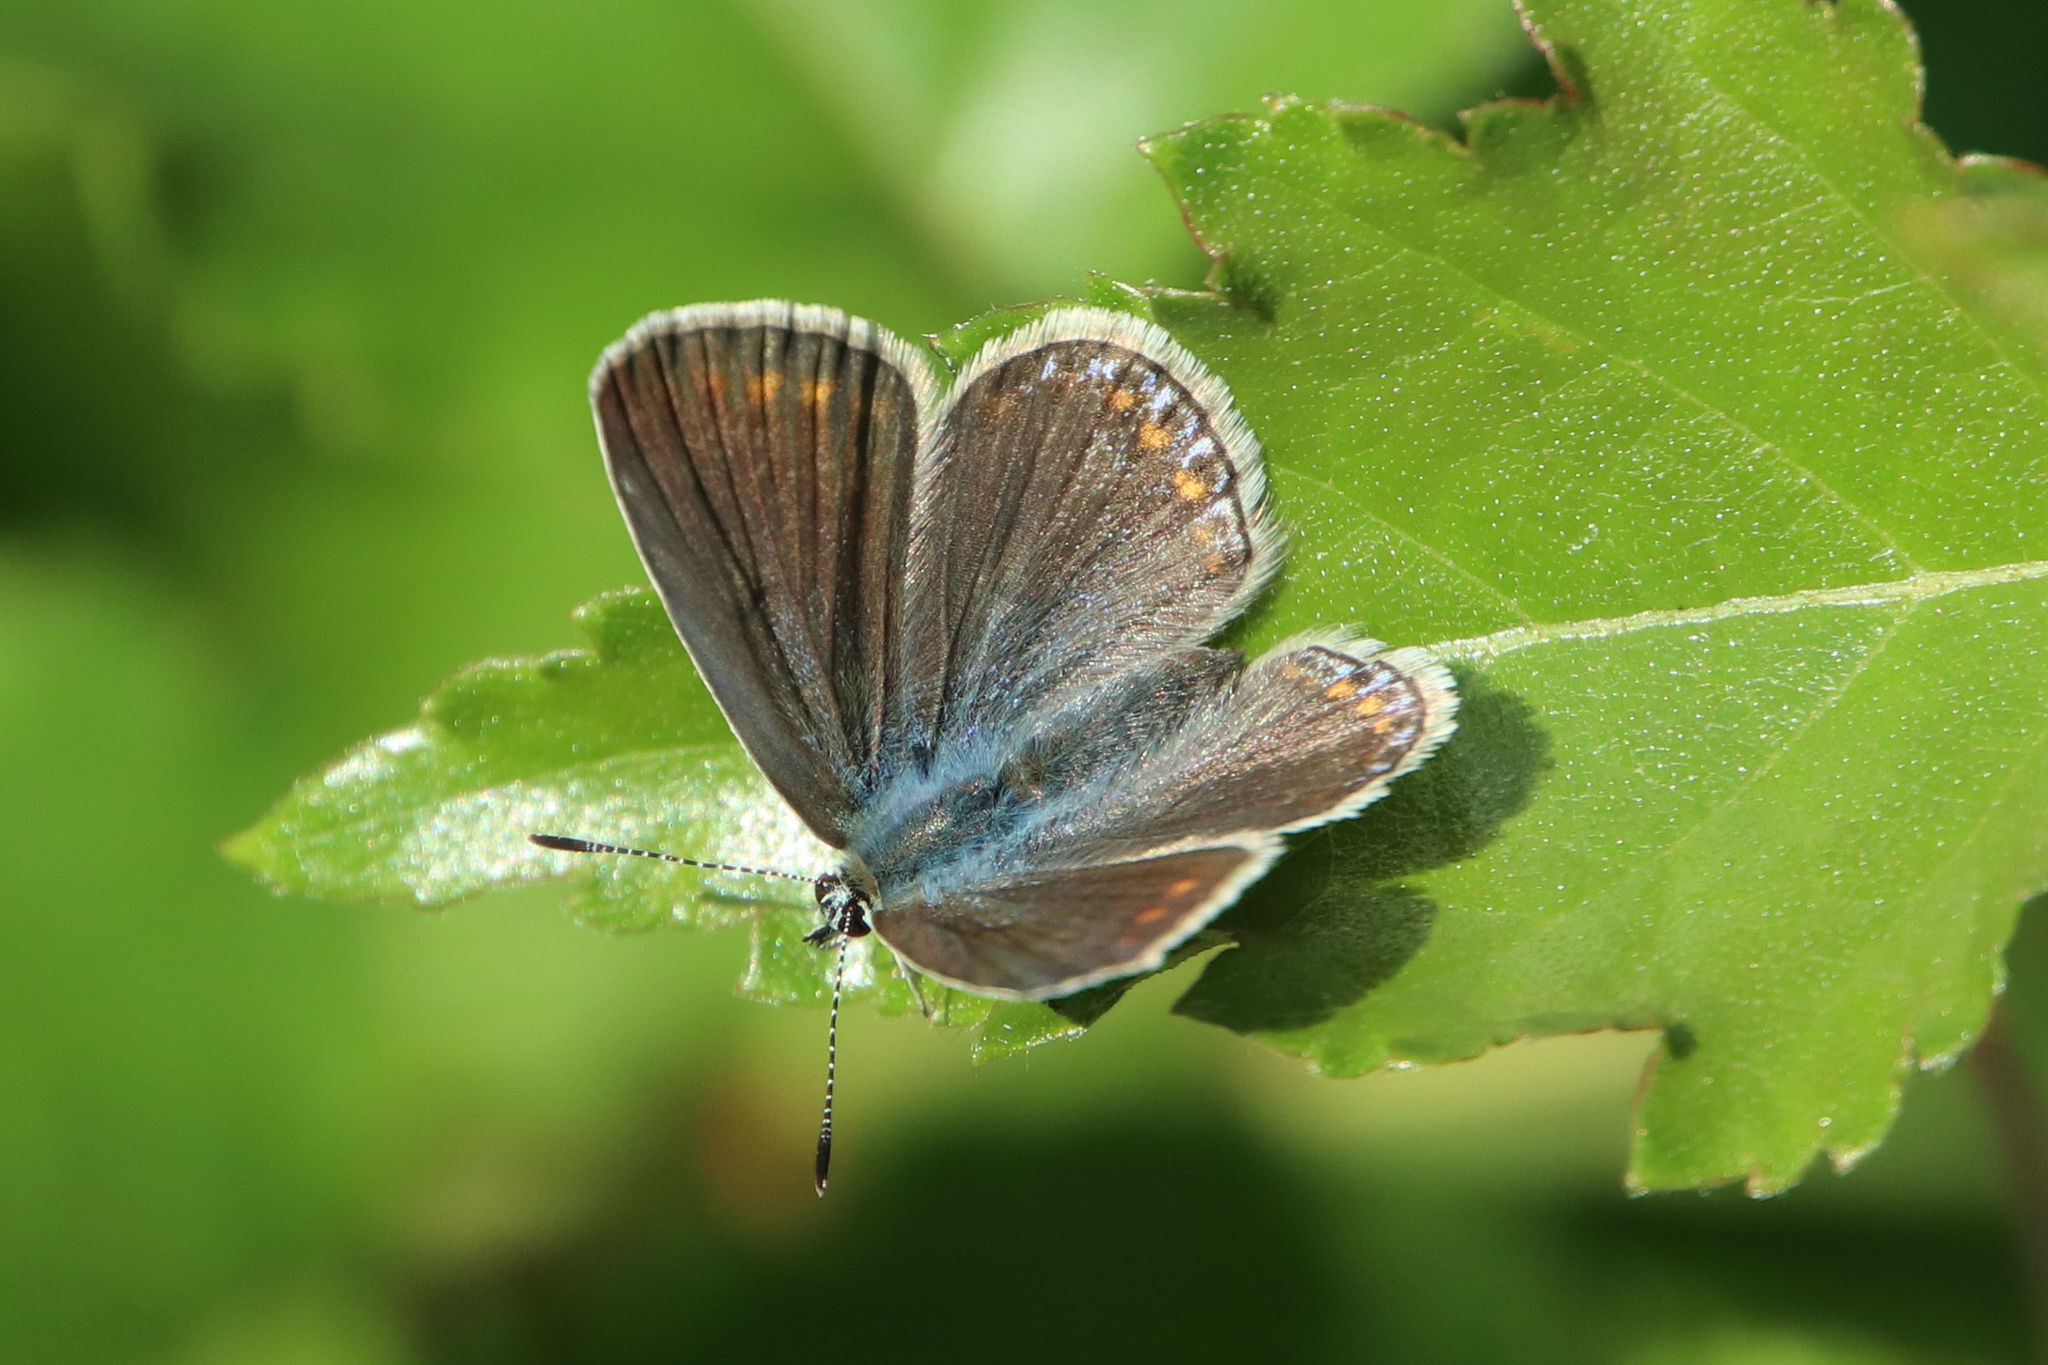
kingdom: Animalia
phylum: Arthropoda
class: Insecta
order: Lepidoptera
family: Lycaenidae
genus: Polyommatus
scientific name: Polyommatus icarus
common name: Common blue
